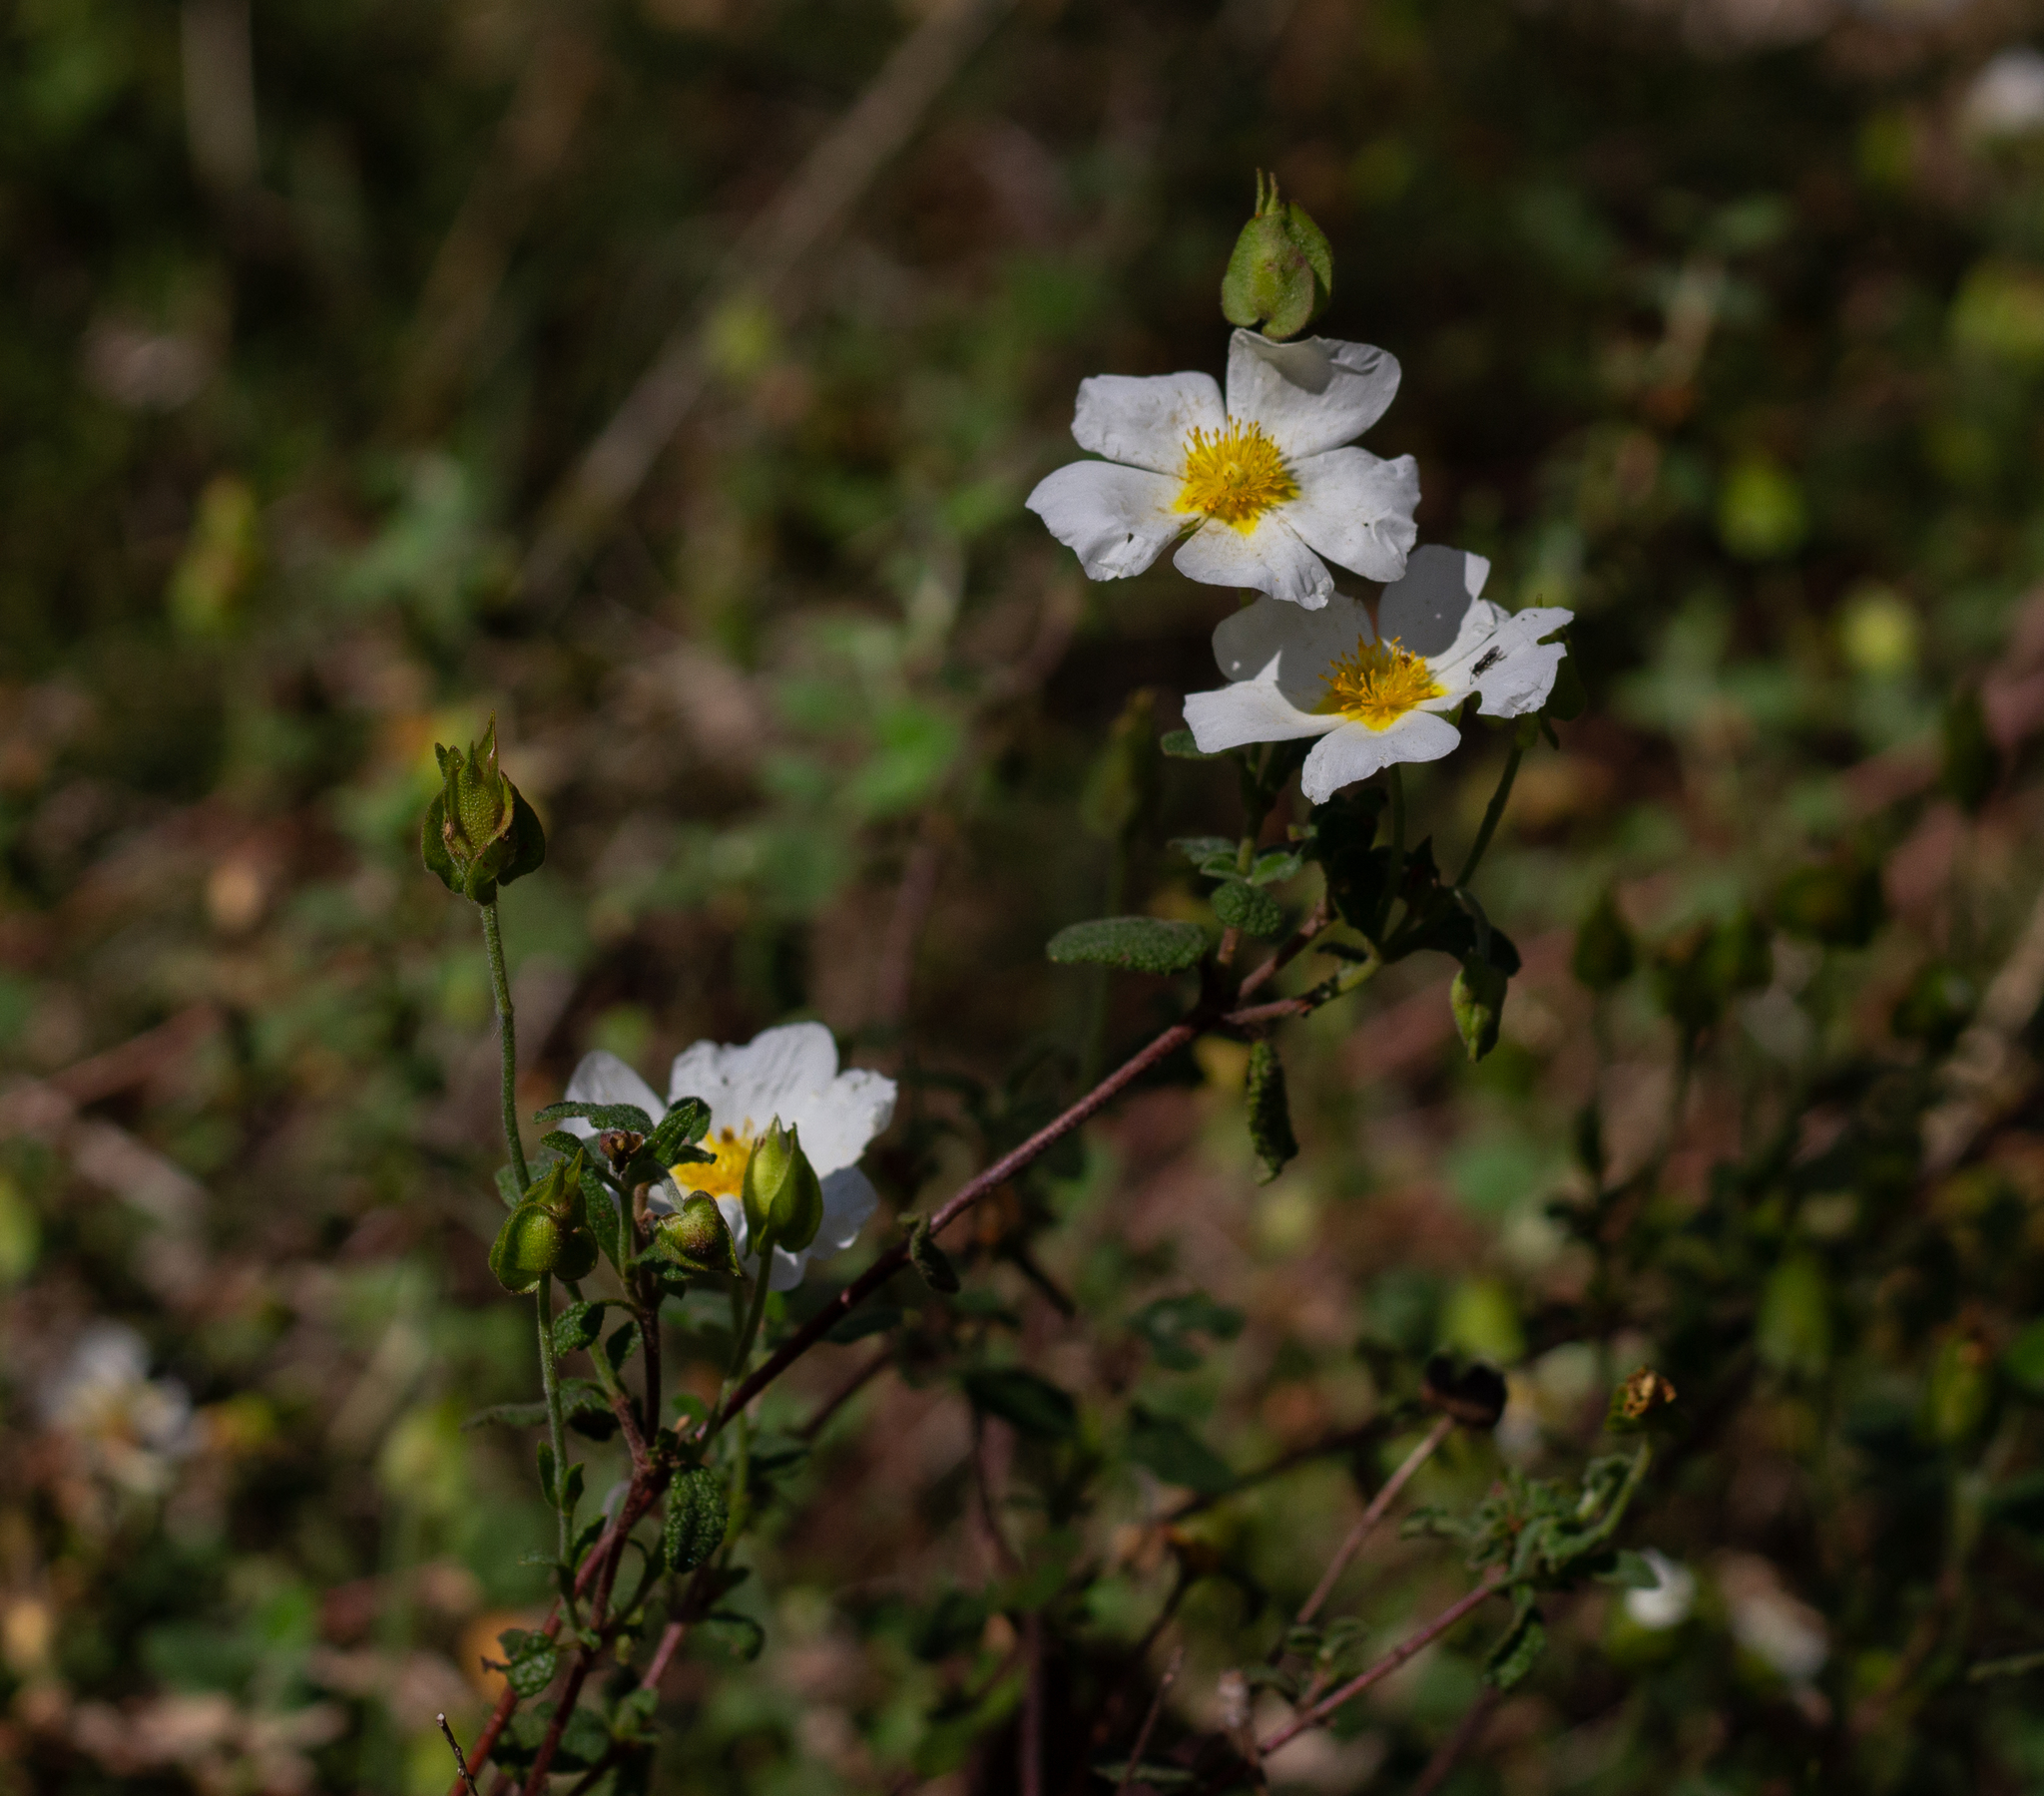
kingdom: Plantae
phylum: Tracheophyta
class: Magnoliopsida
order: Malvales
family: Cistaceae
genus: Cistus
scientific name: Cistus salviifolius
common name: Salvia cistus
